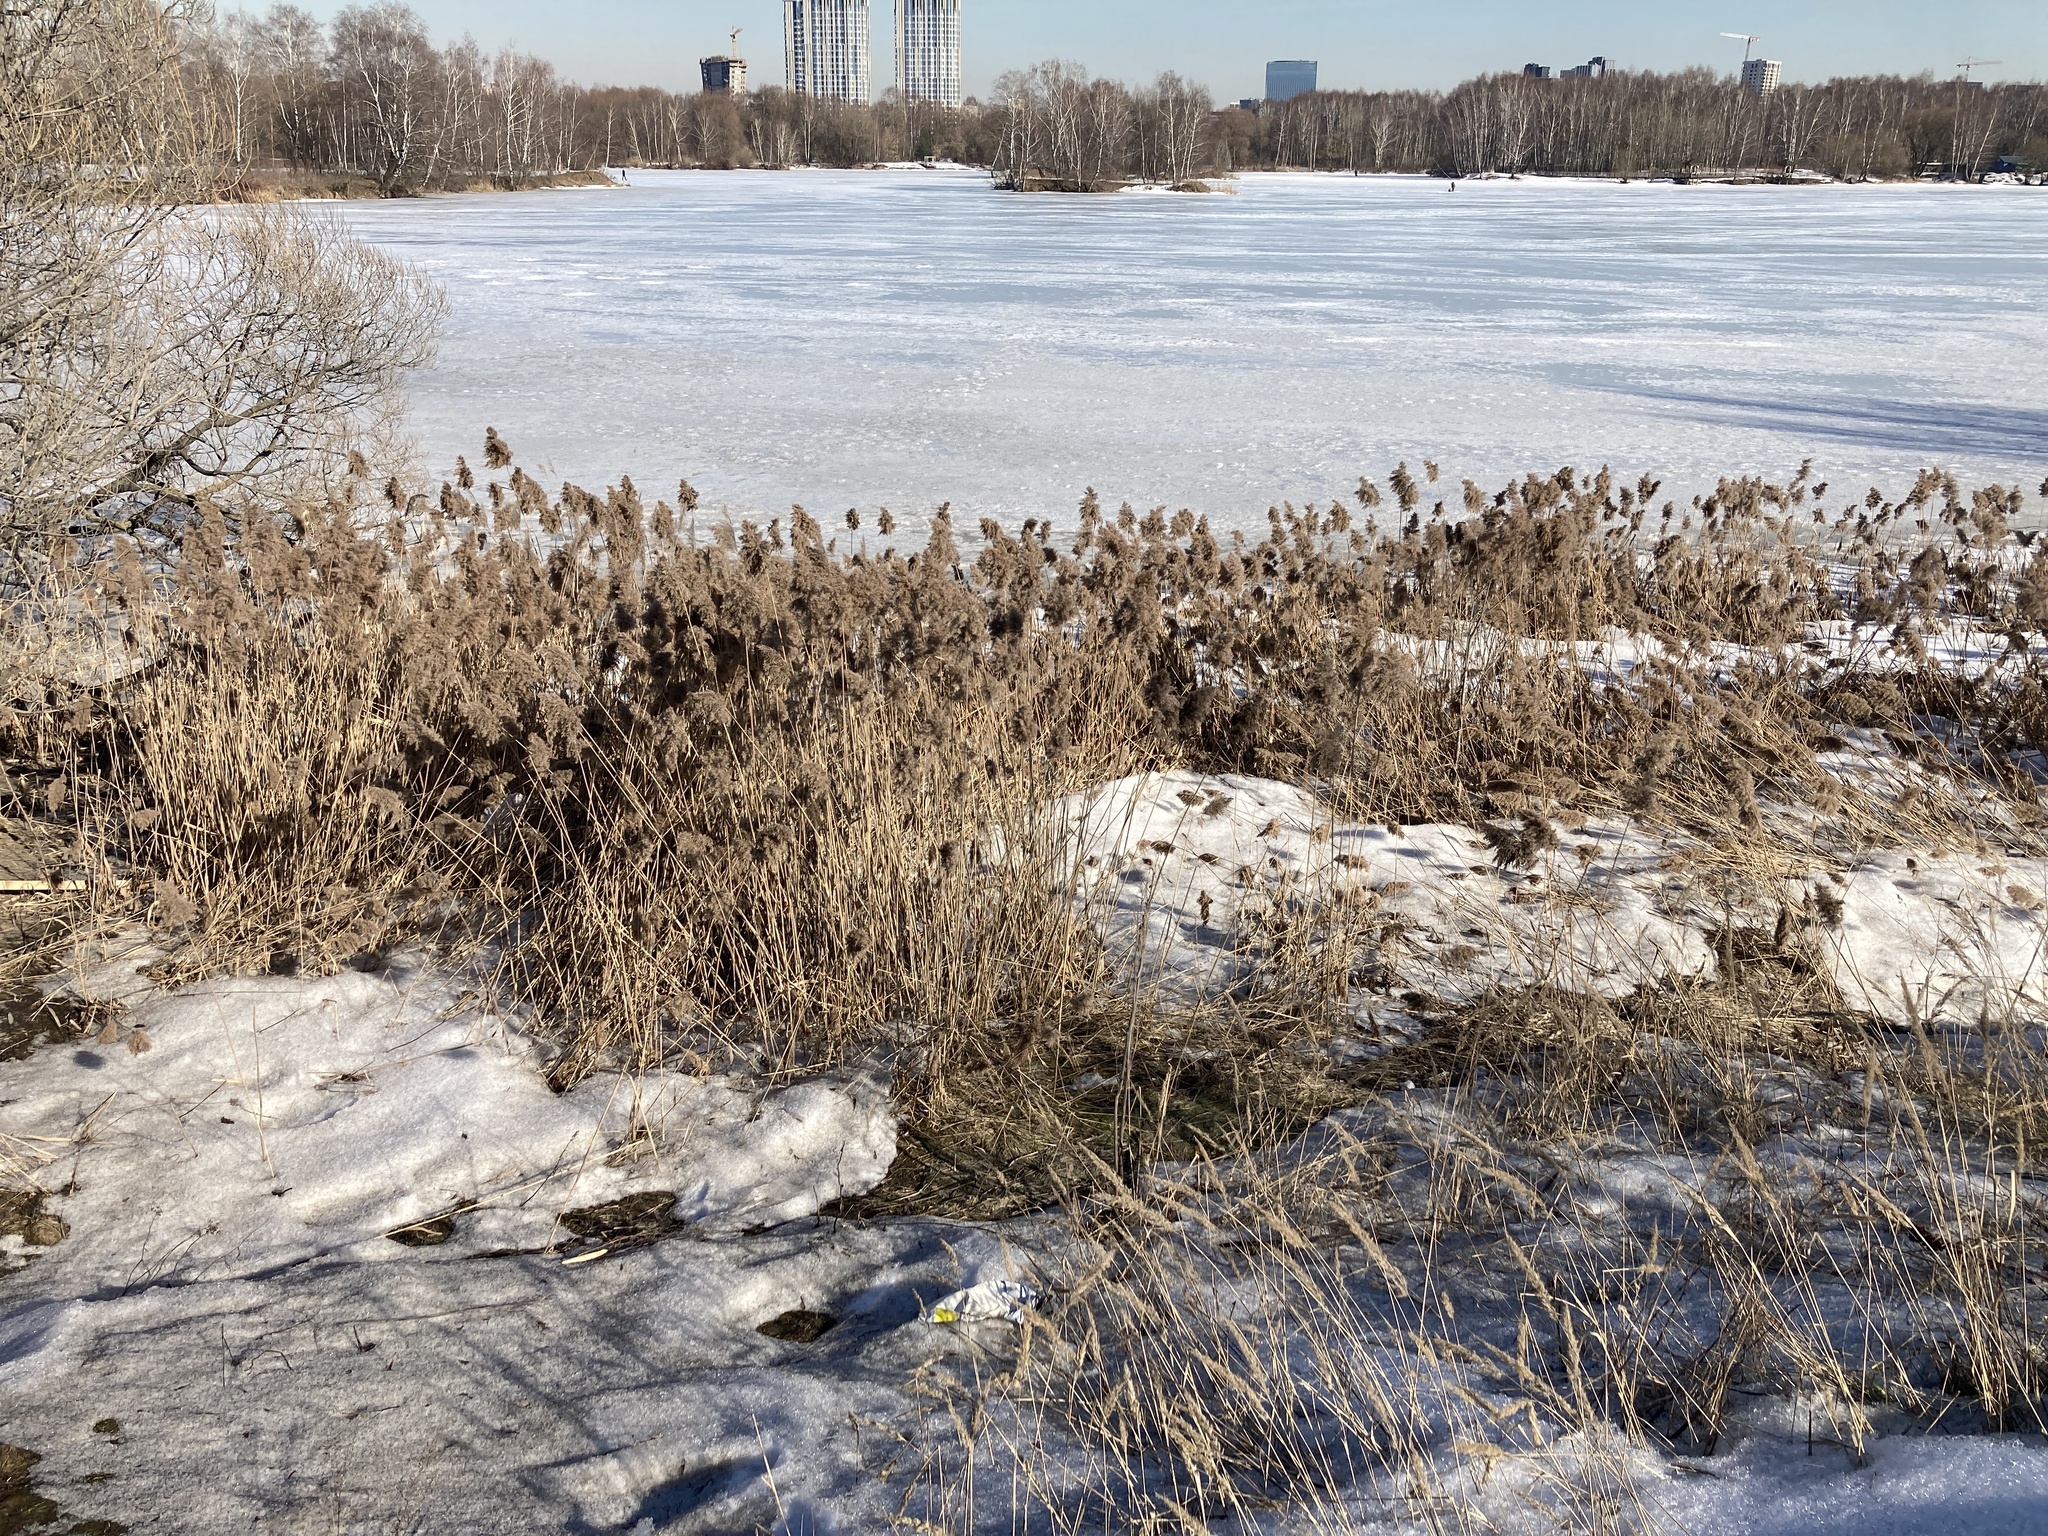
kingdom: Plantae
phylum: Tracheophyta
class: Liliopsida
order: Poales
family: Poaceae
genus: Phragmites
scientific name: Phragmites australis
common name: Common reed
